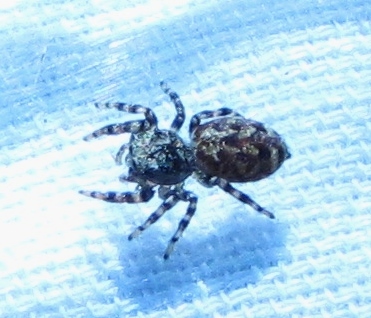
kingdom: Animalia
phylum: Arthropoda
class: Arachnida
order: Araneae
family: Salticidae
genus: Pelegrina
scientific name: Pelegrina galathea
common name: Jumping spiders
